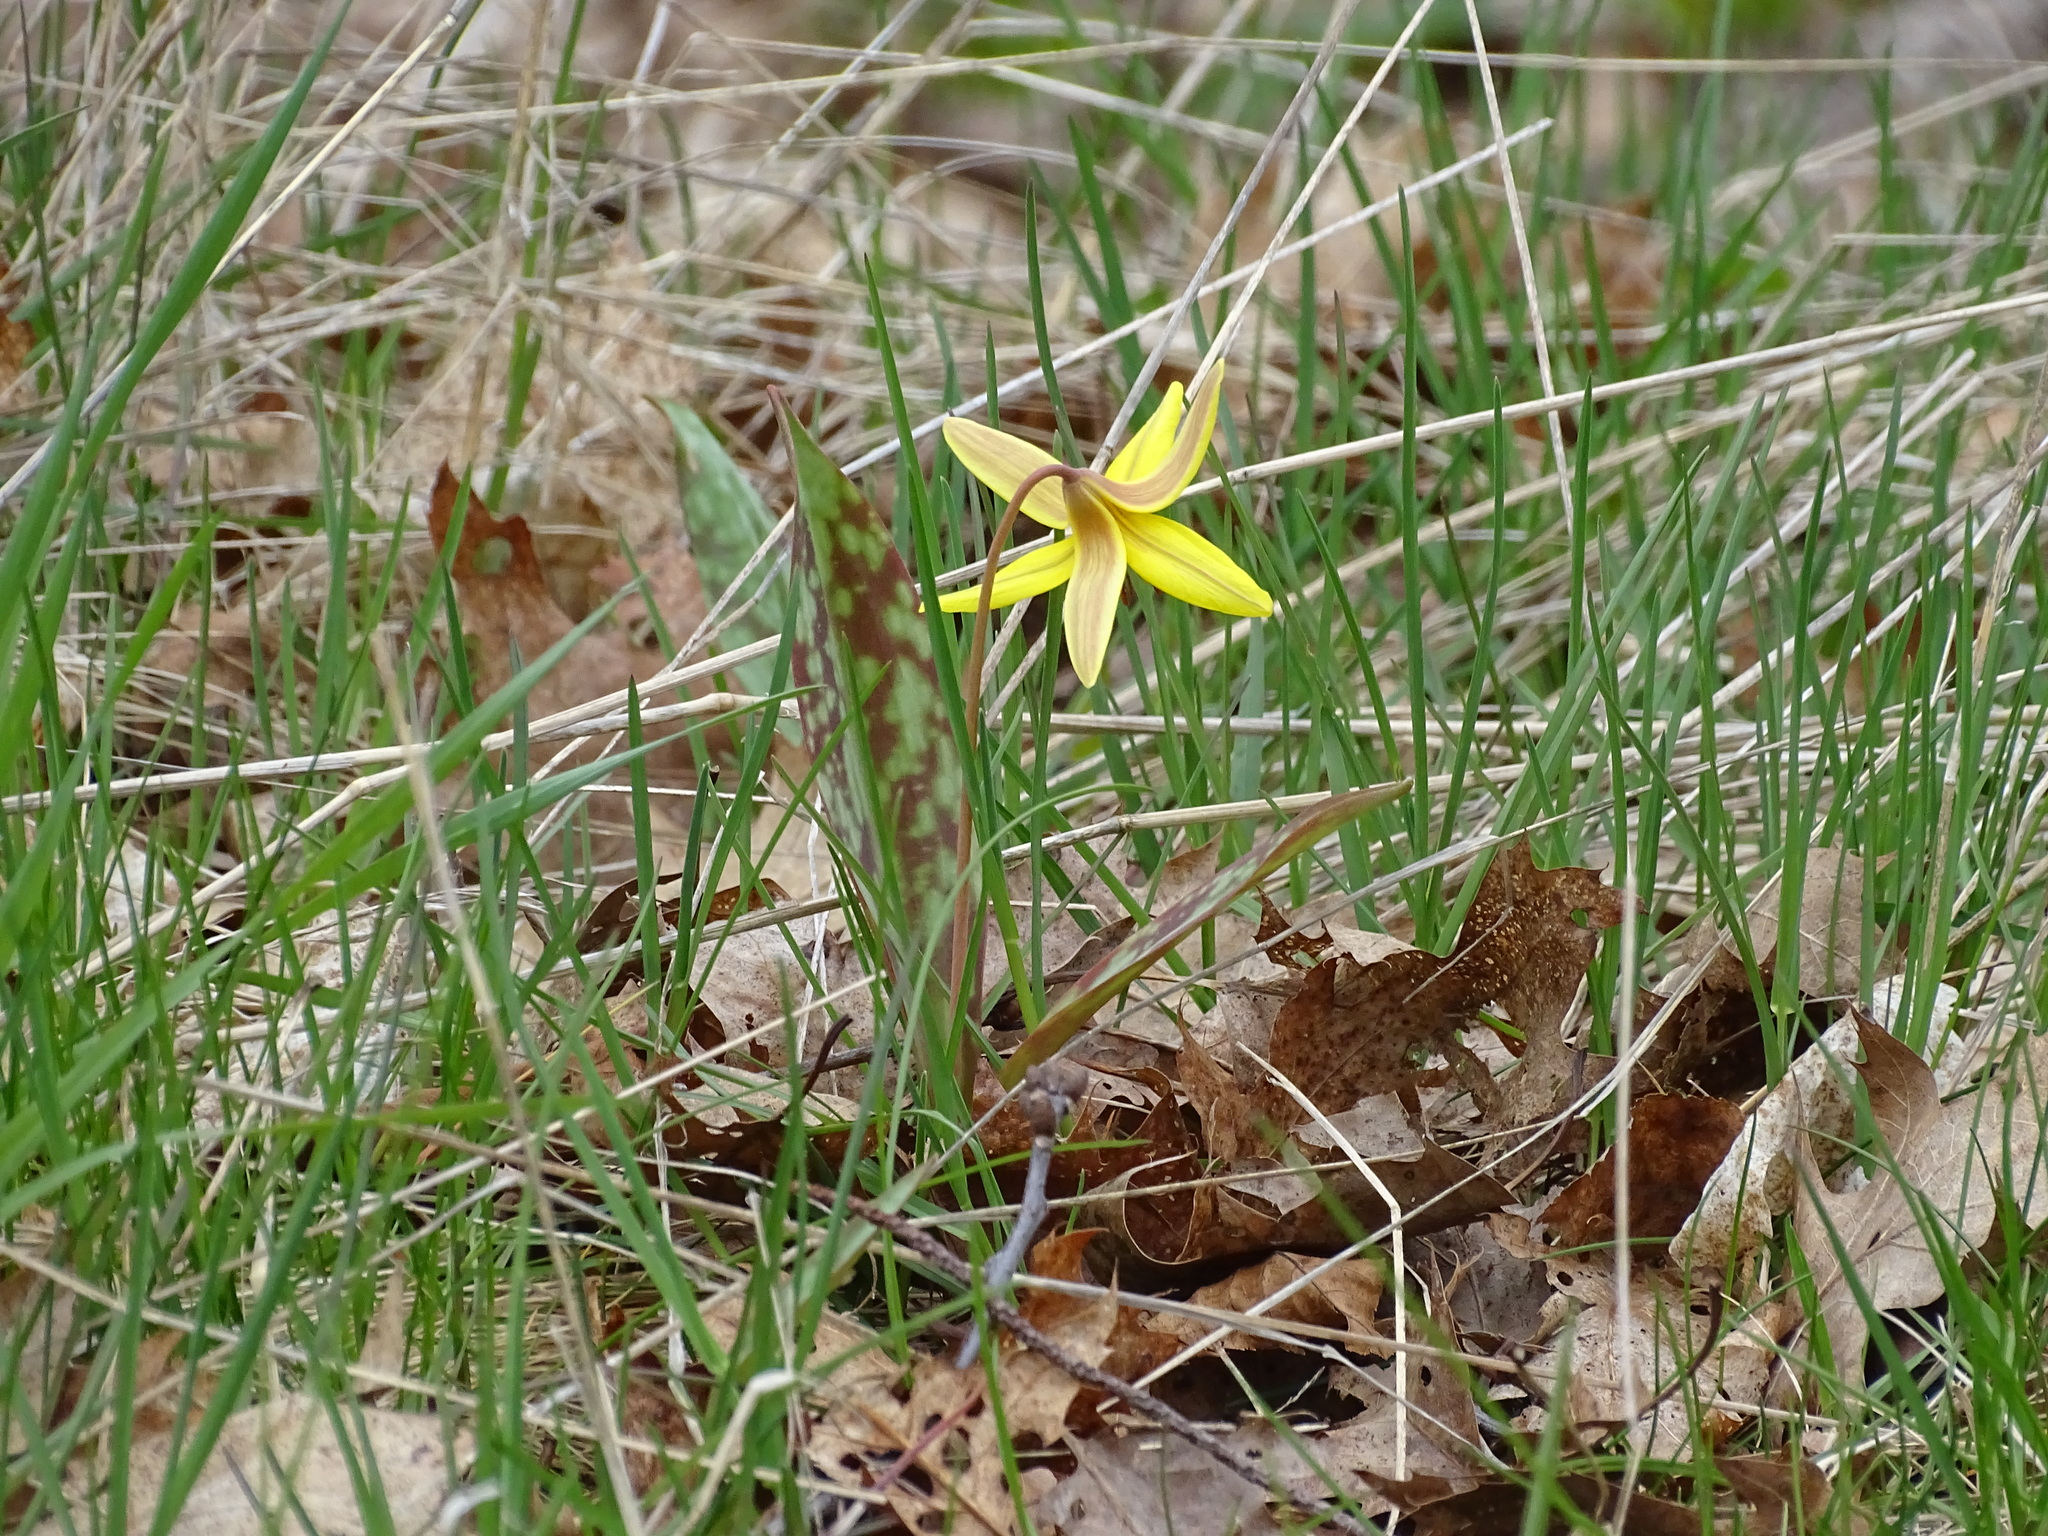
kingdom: Plantae
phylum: Tracheophyta
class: Liliopsida
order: Liliales
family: Liliaceae
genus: Erythronium
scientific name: Erythronium americanum
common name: Yellow adder's-tongue
